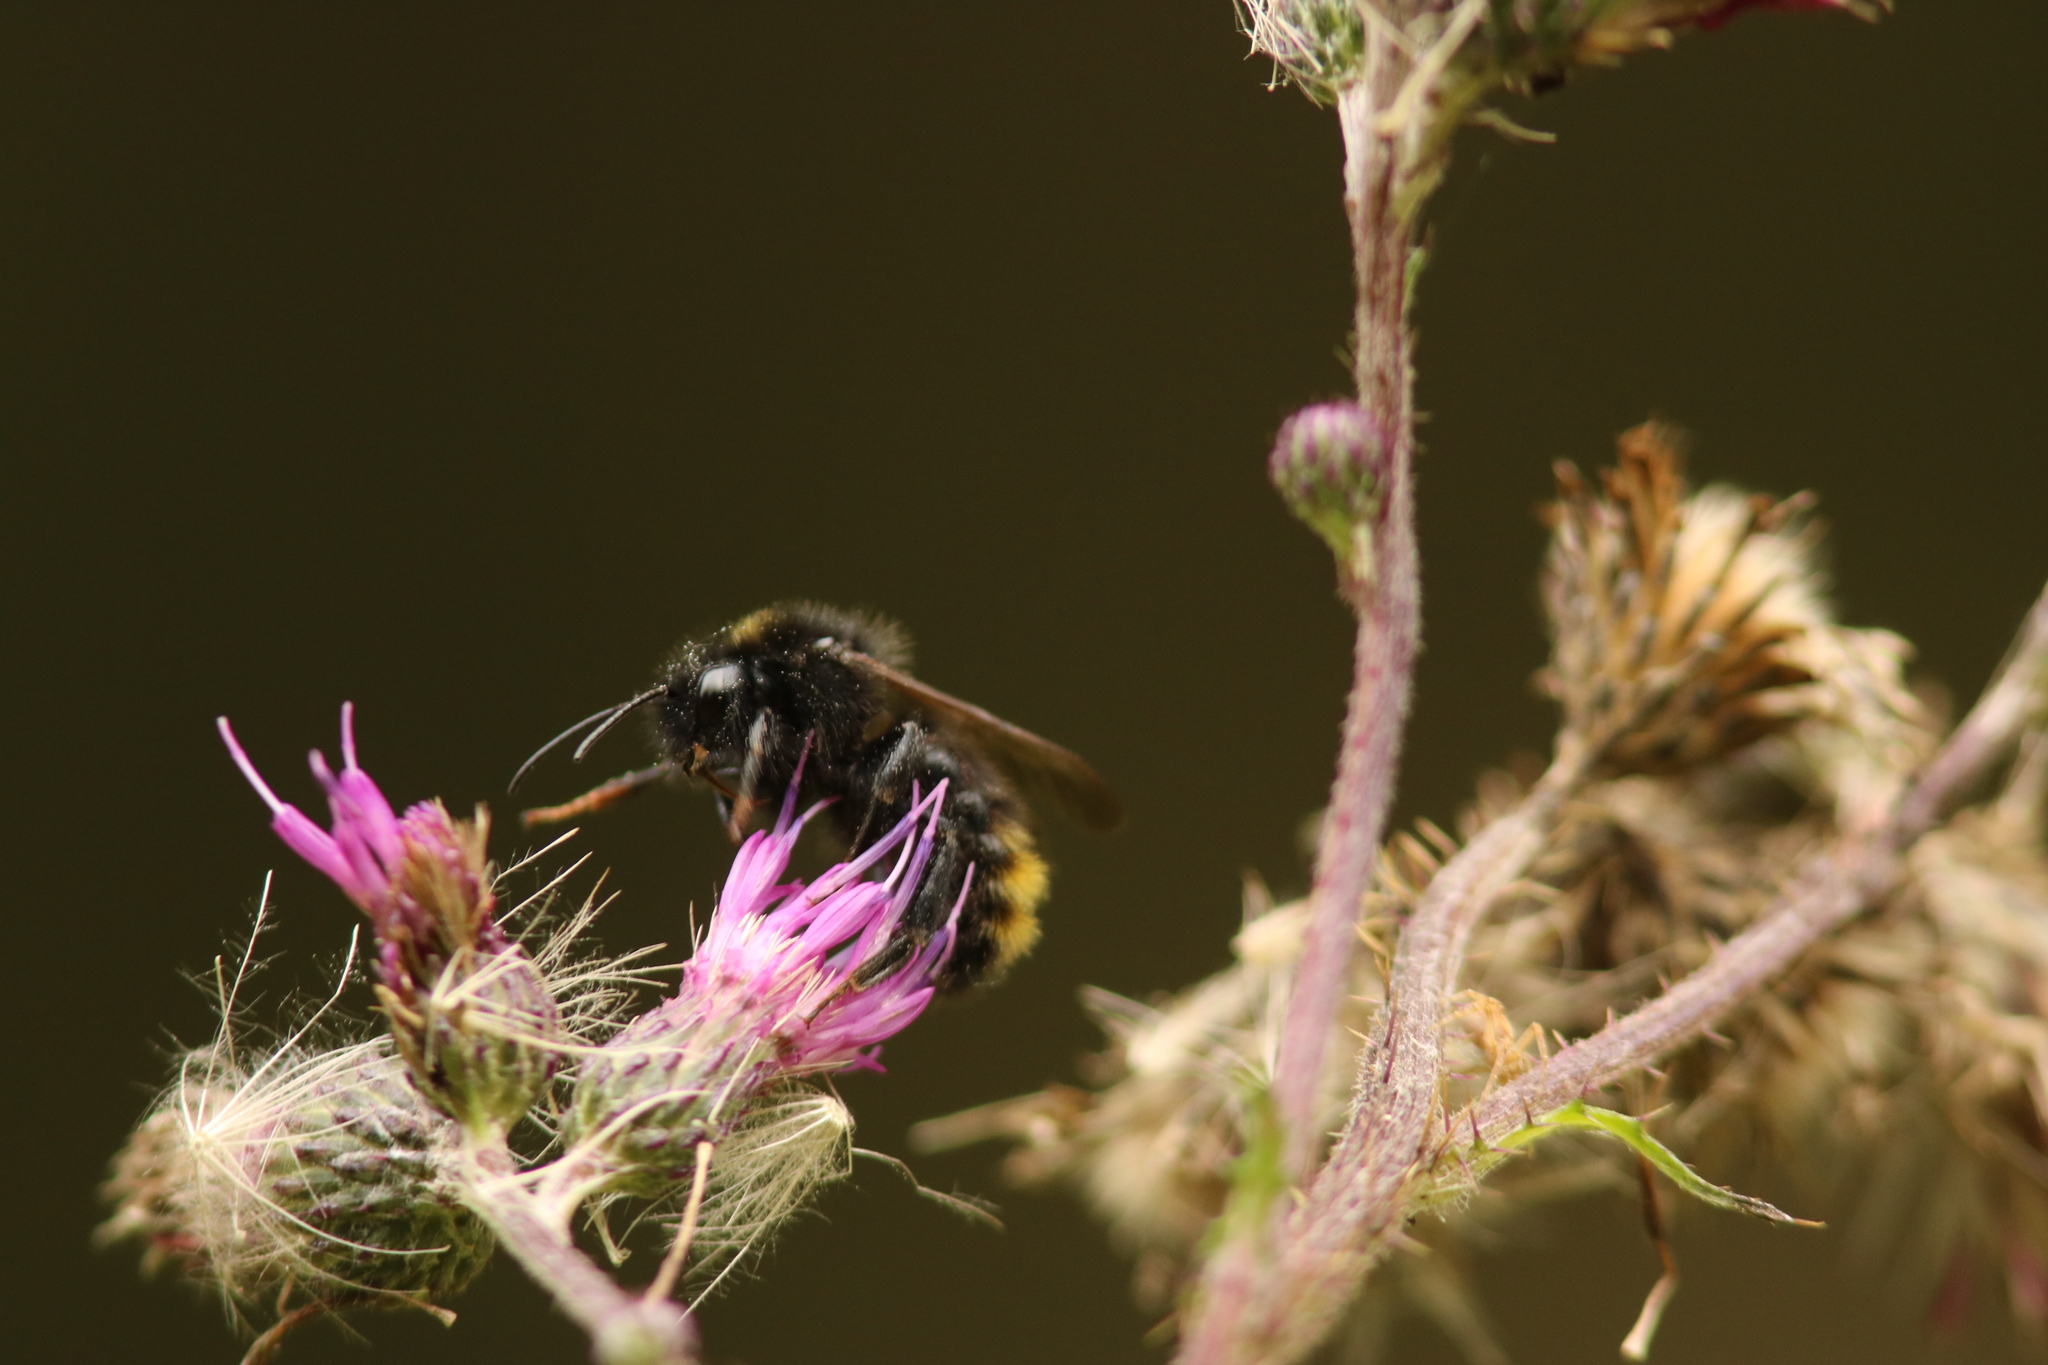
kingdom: Animalia
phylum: Arthropoda
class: Insecta
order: Hymenoptera
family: Apidae
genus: Bombus
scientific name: Bombus campestris
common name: Field cuckoo-bee
